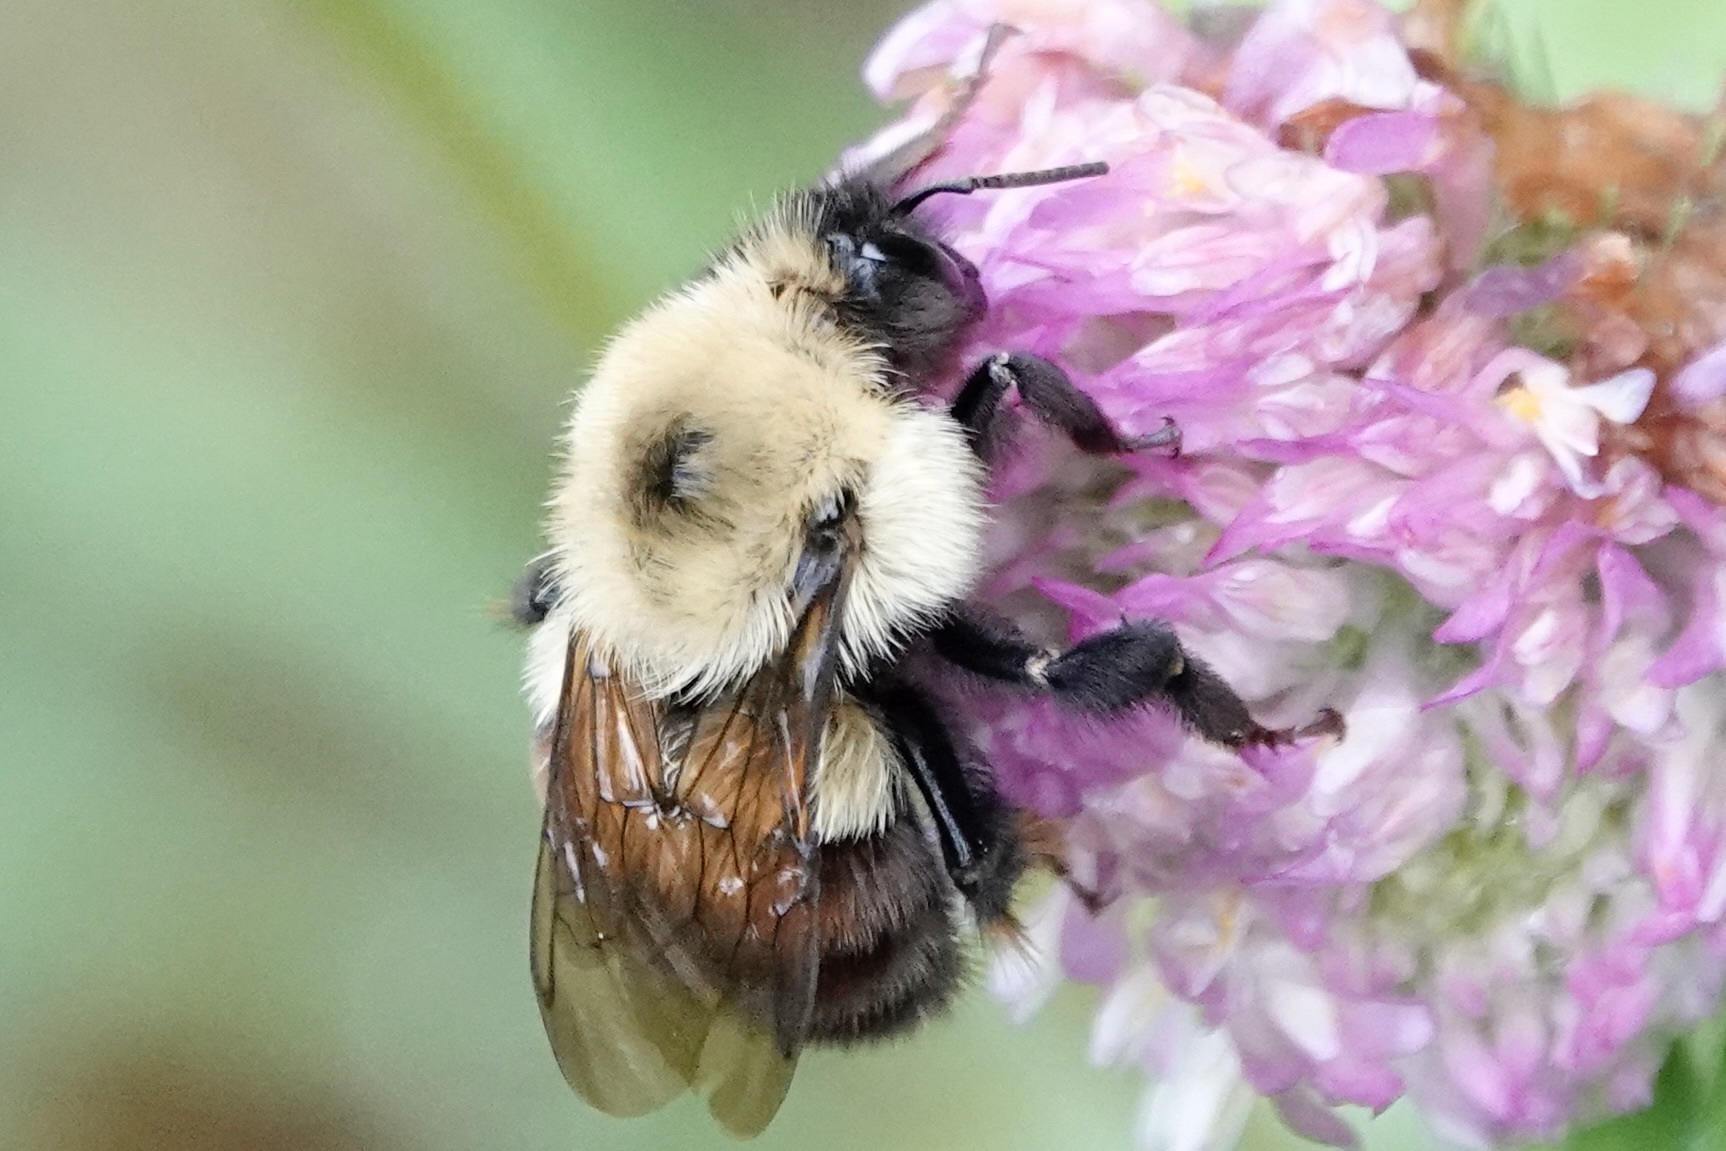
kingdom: Animalia
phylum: Arthropoda
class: Insecta
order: Hymenoptera
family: Apidae
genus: Bombus
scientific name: Bombus bimaculatus
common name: Two-spotted bumble bee
